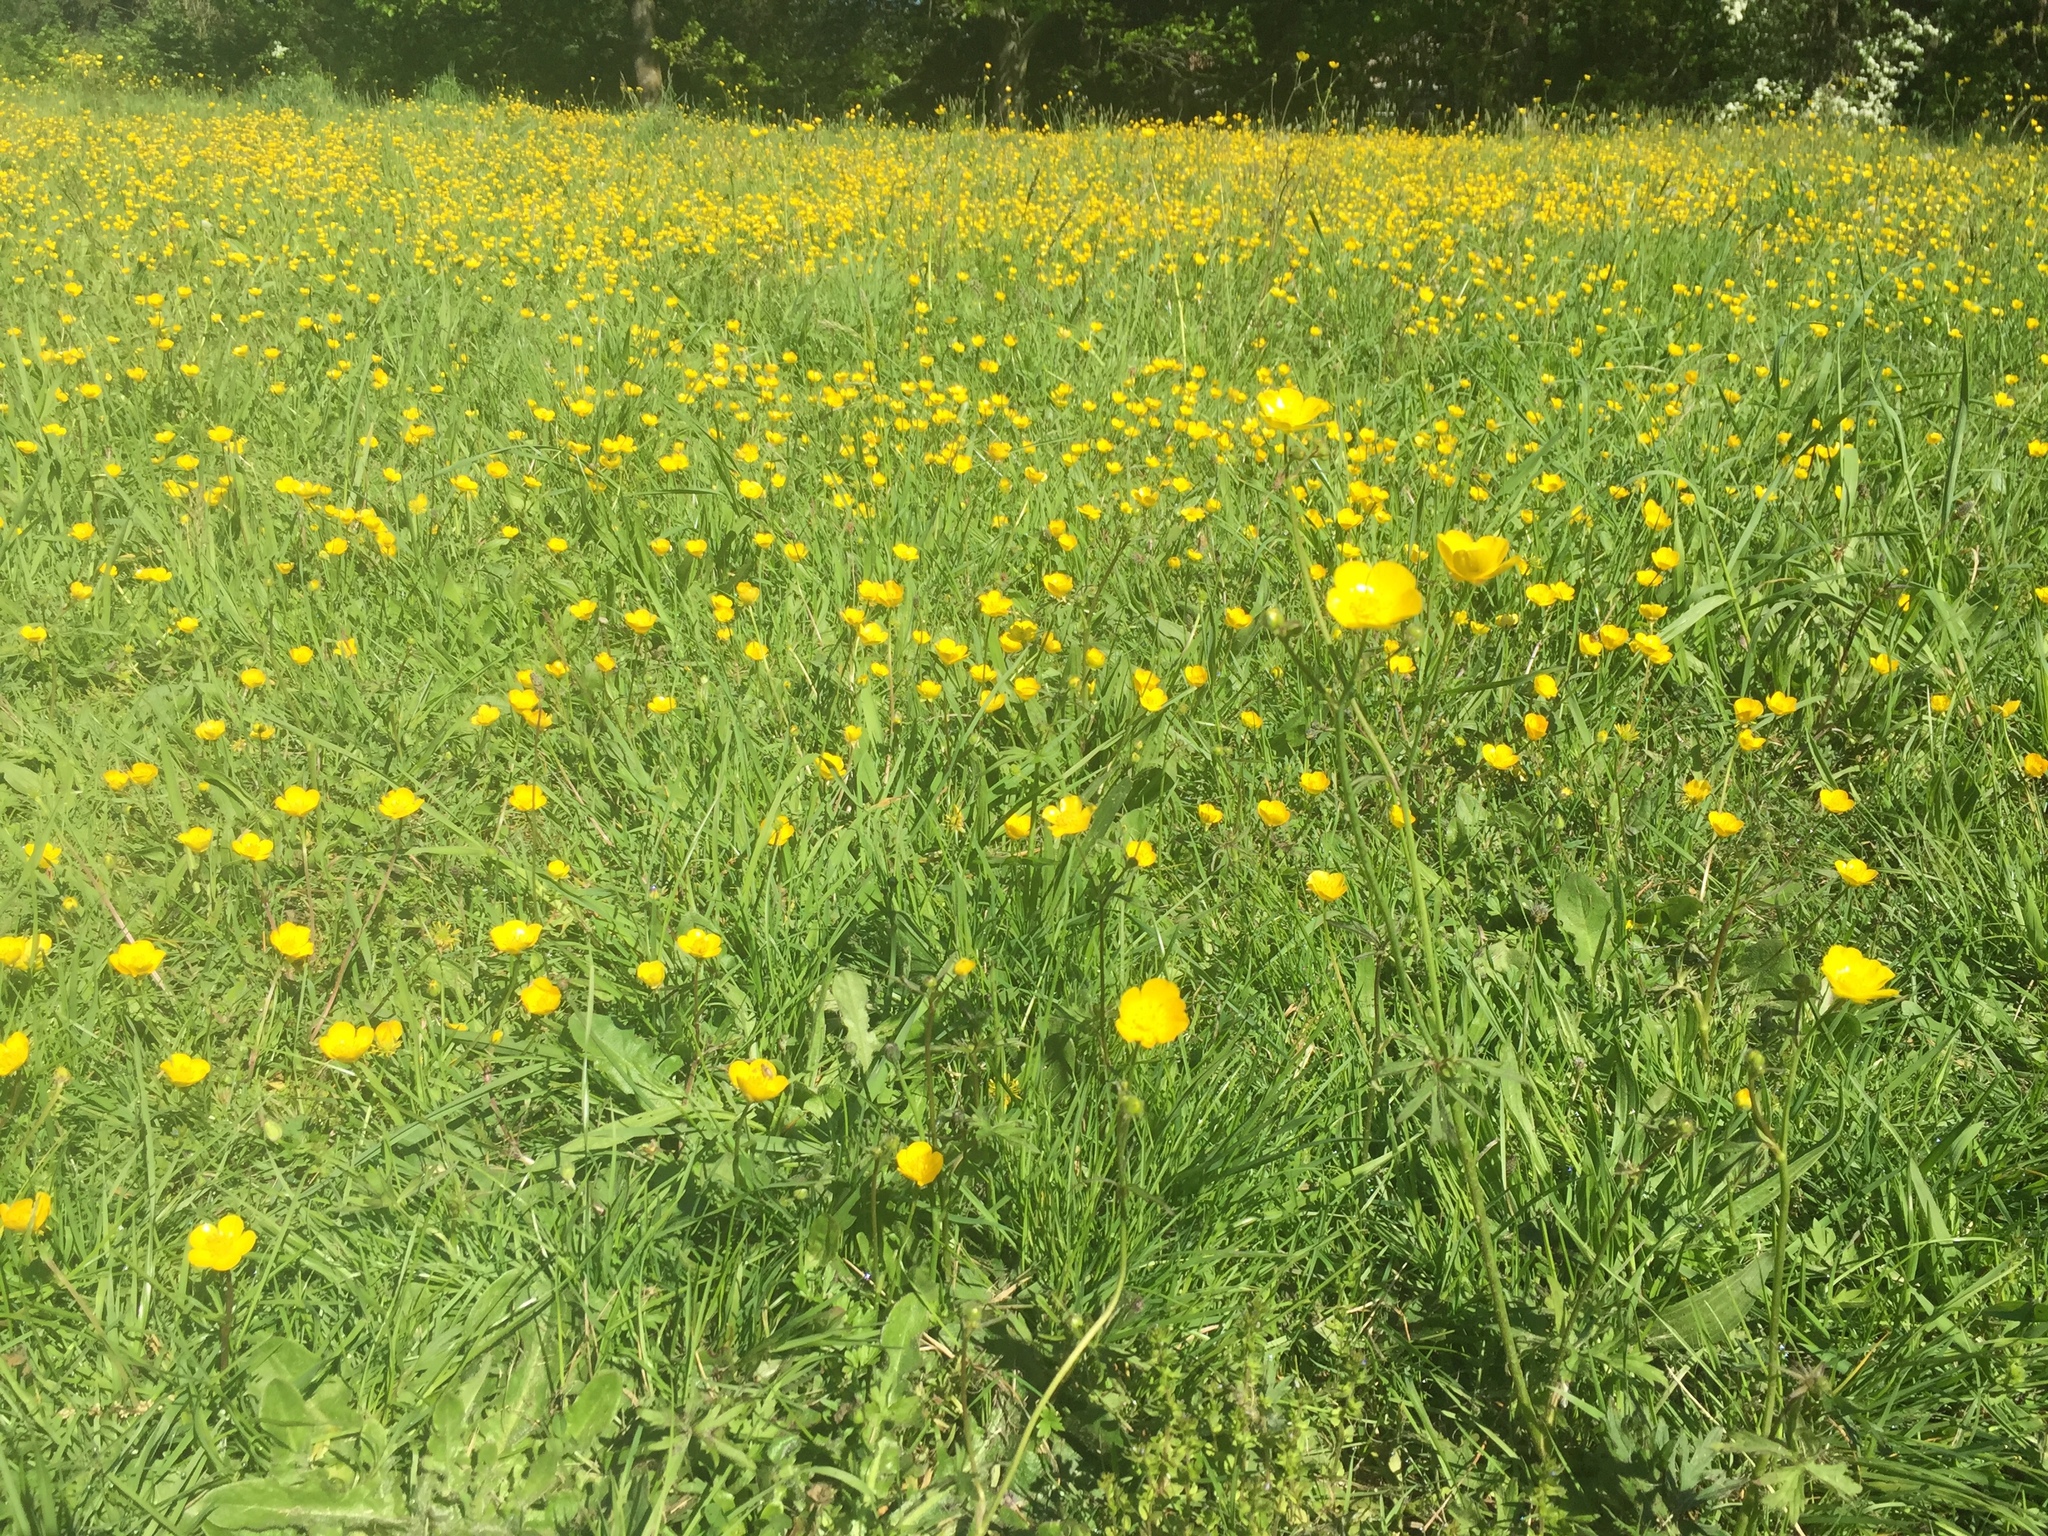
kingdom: Plantae
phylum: Tracheophyta
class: Magnoliopsida
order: Ranunculales
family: Ranunculaceae
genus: Ranunculus
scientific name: Ranunculus acris
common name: Meadow buttercup
